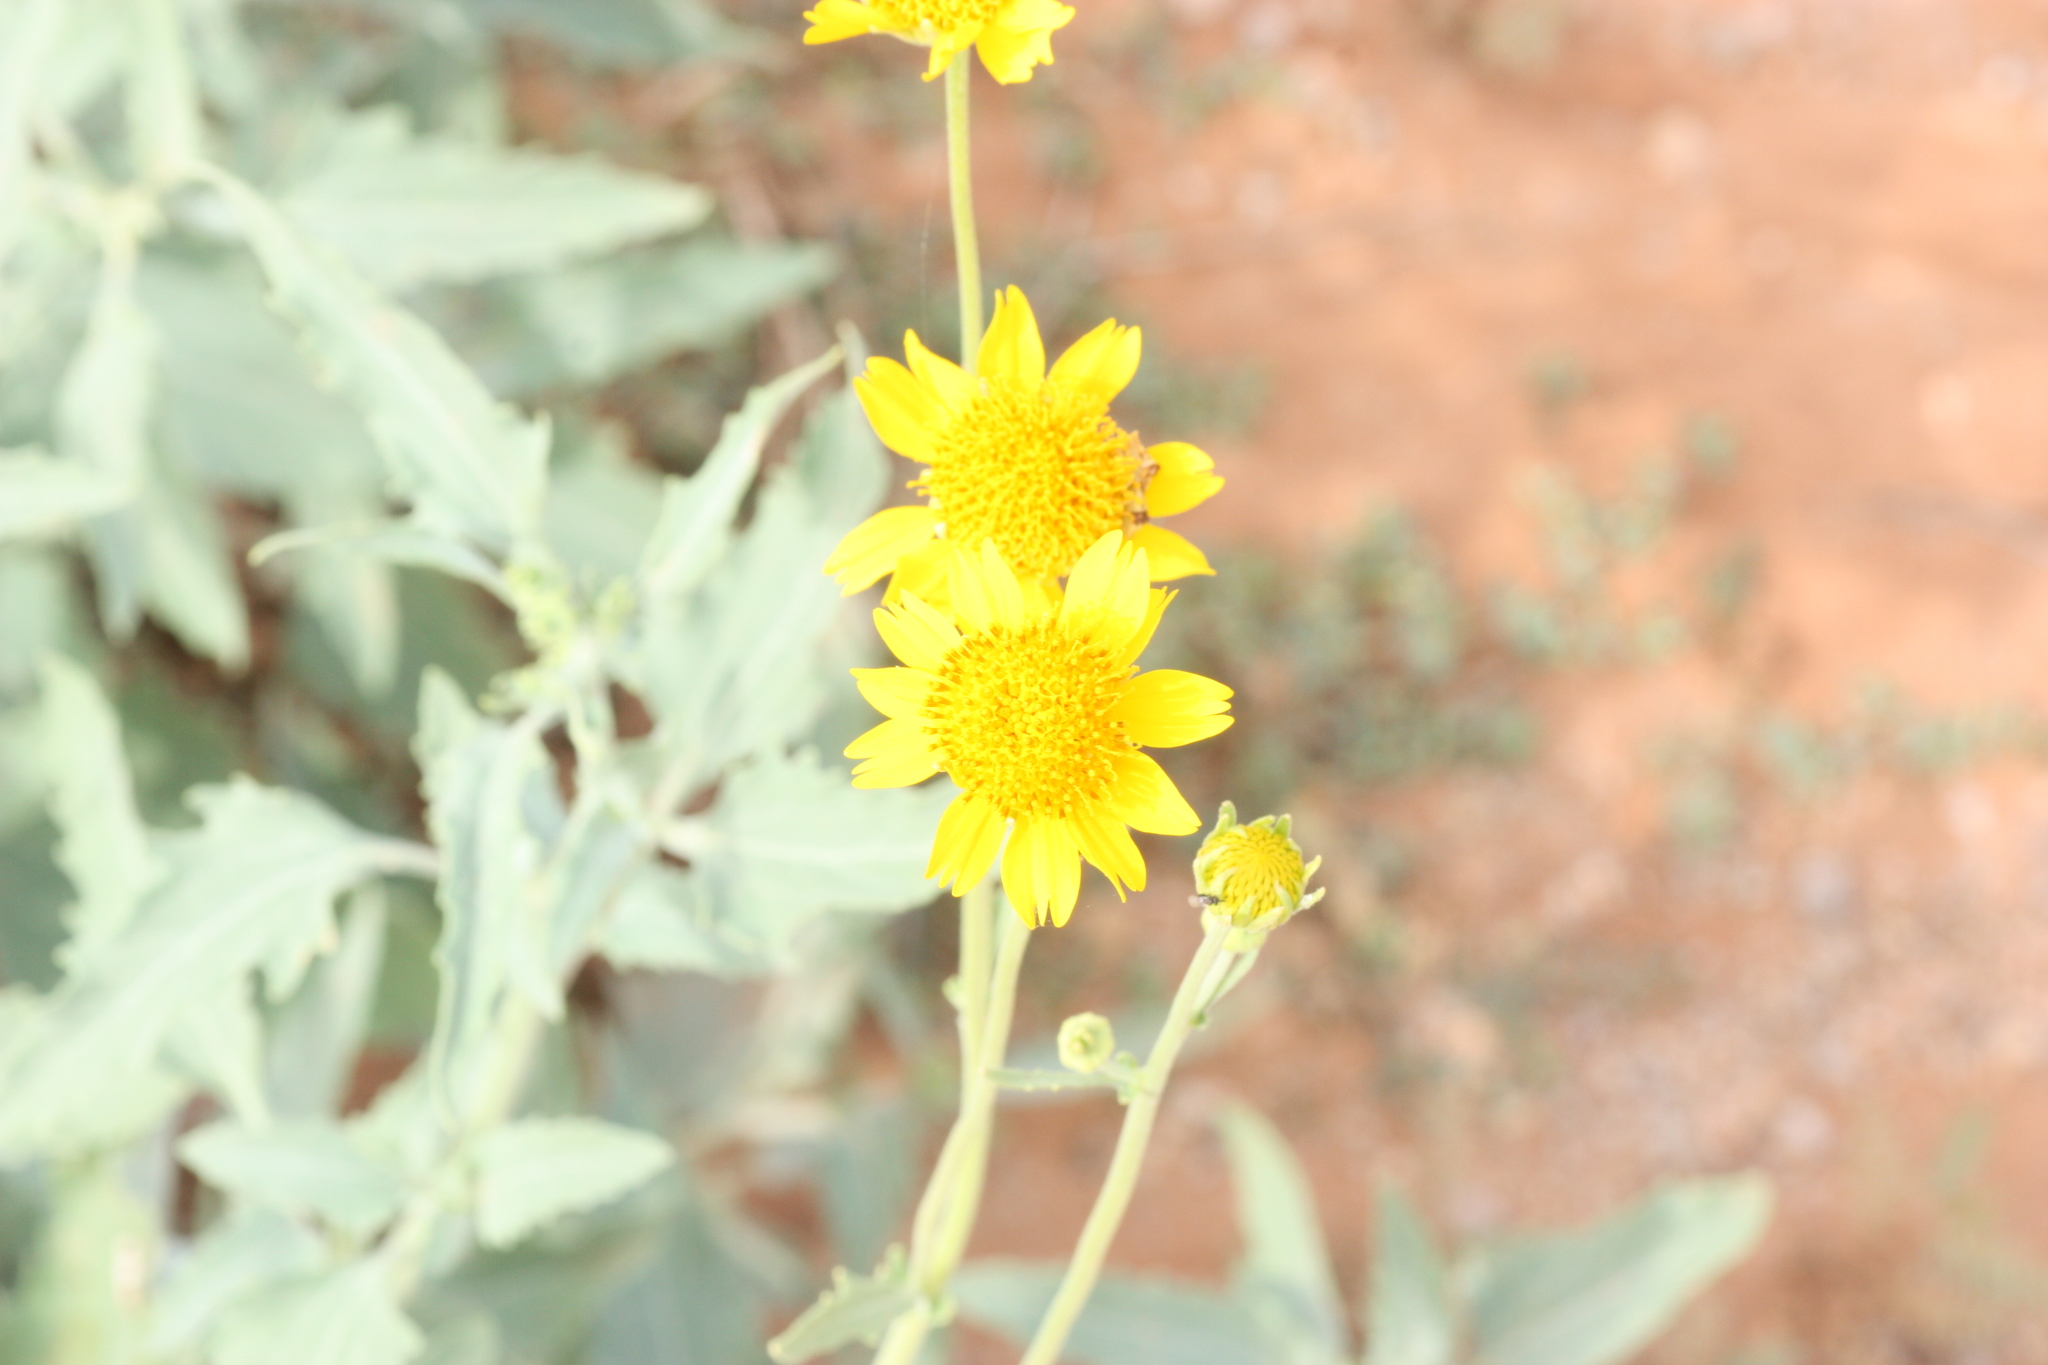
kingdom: Plantae
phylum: Tracheophyta
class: Magnoliopsida
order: Asterales
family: Asteraceae
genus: Verbesina
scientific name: Verbesina encelioides
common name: Golden crownbeard
